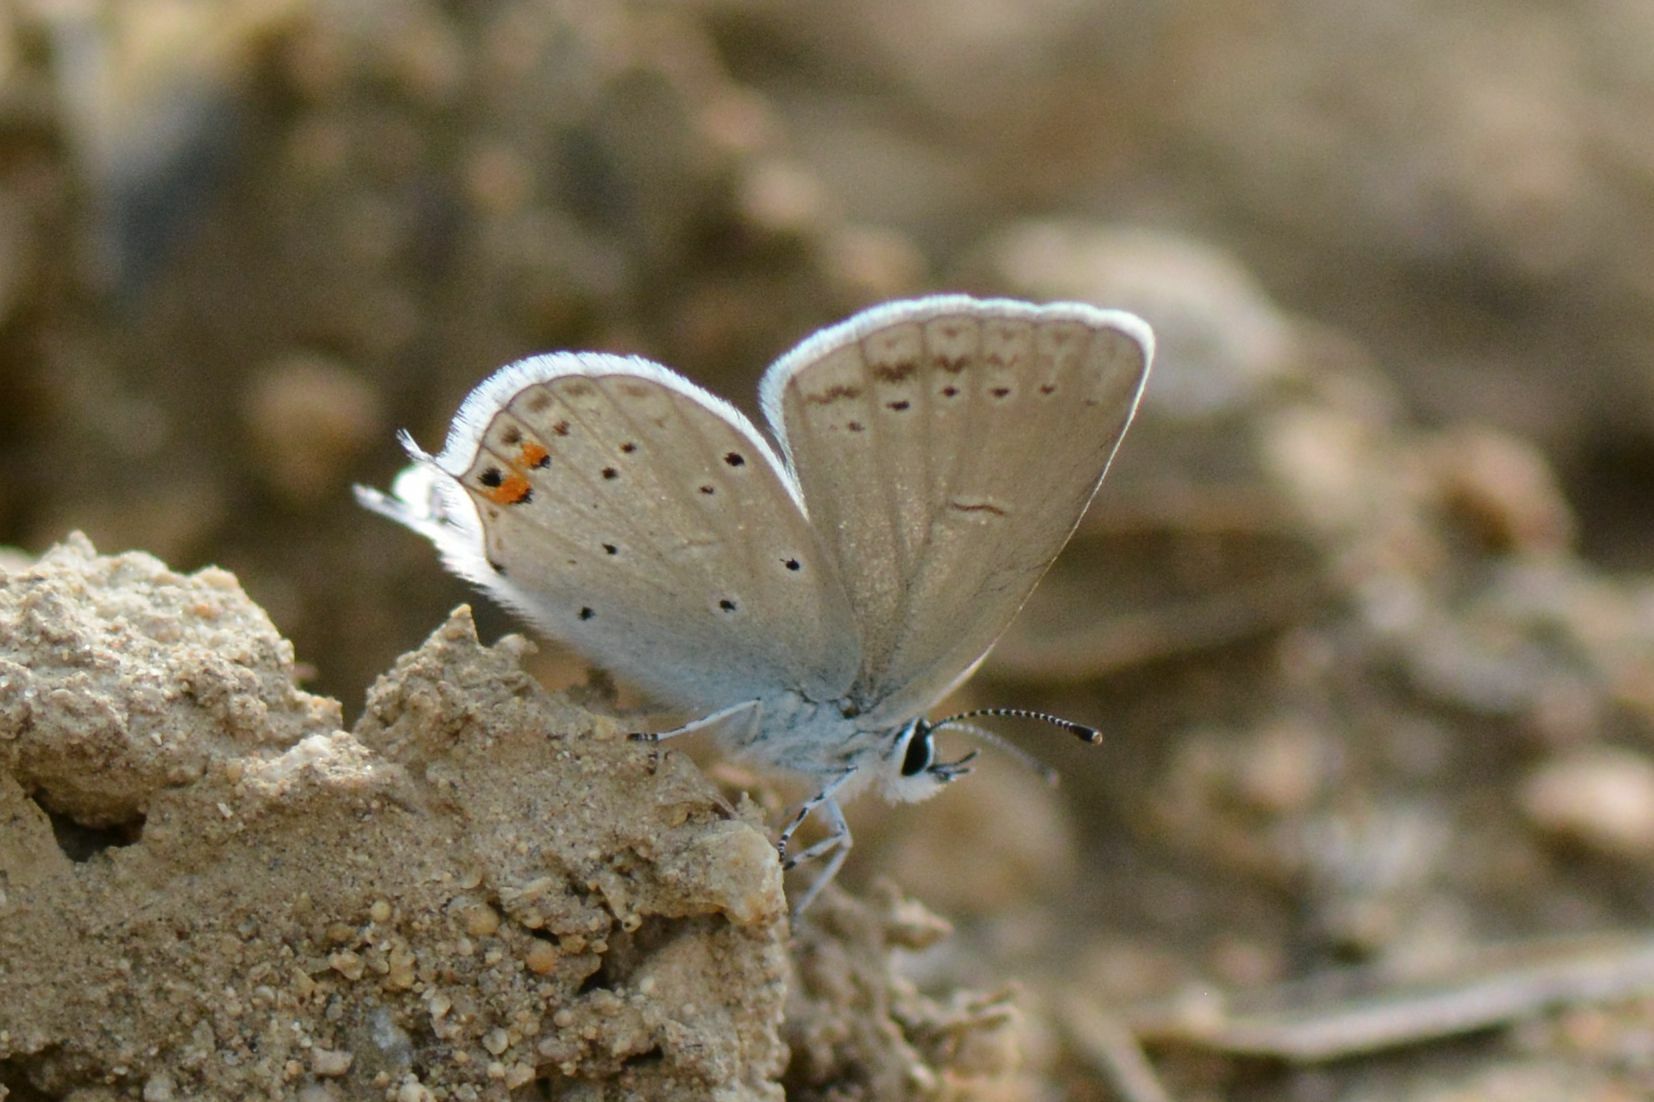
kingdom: Animalia
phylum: Arthropoda
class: Insecta
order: Lepidoptera
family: Lycaenidae
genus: Elkalyce
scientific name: Elkalyce argiades
